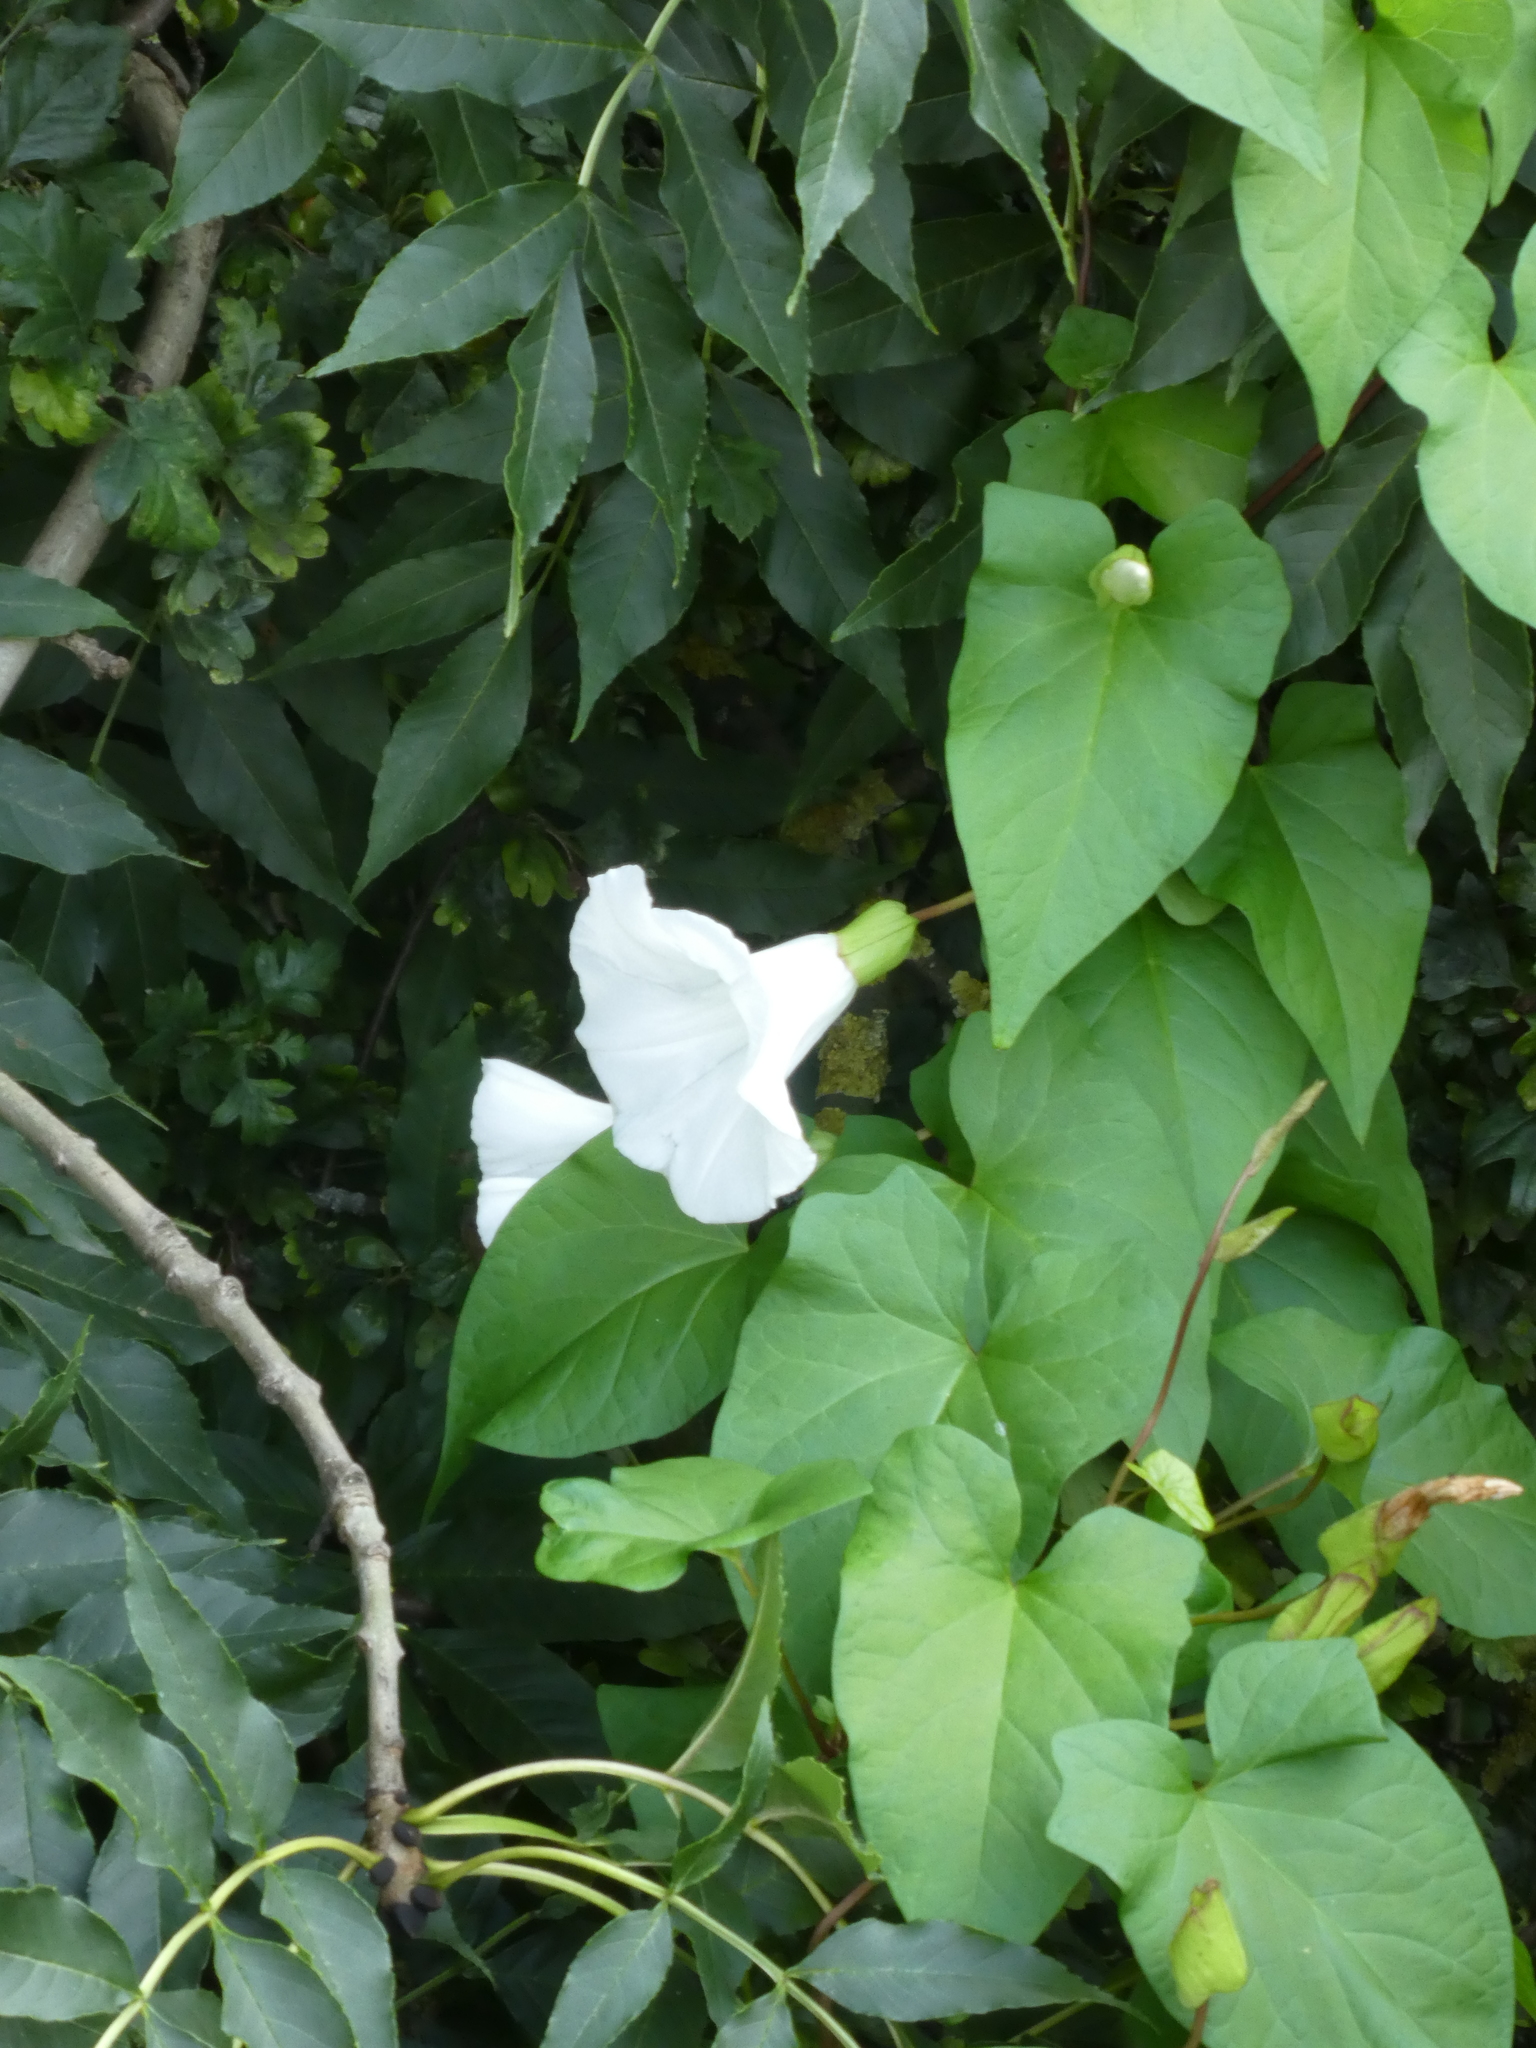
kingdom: Plantae
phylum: Tracheophyta
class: Magnoliopsida
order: Solanales
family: Convolvulaceae
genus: Calystegia
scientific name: Calystegia silvatica
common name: Large bindweed
